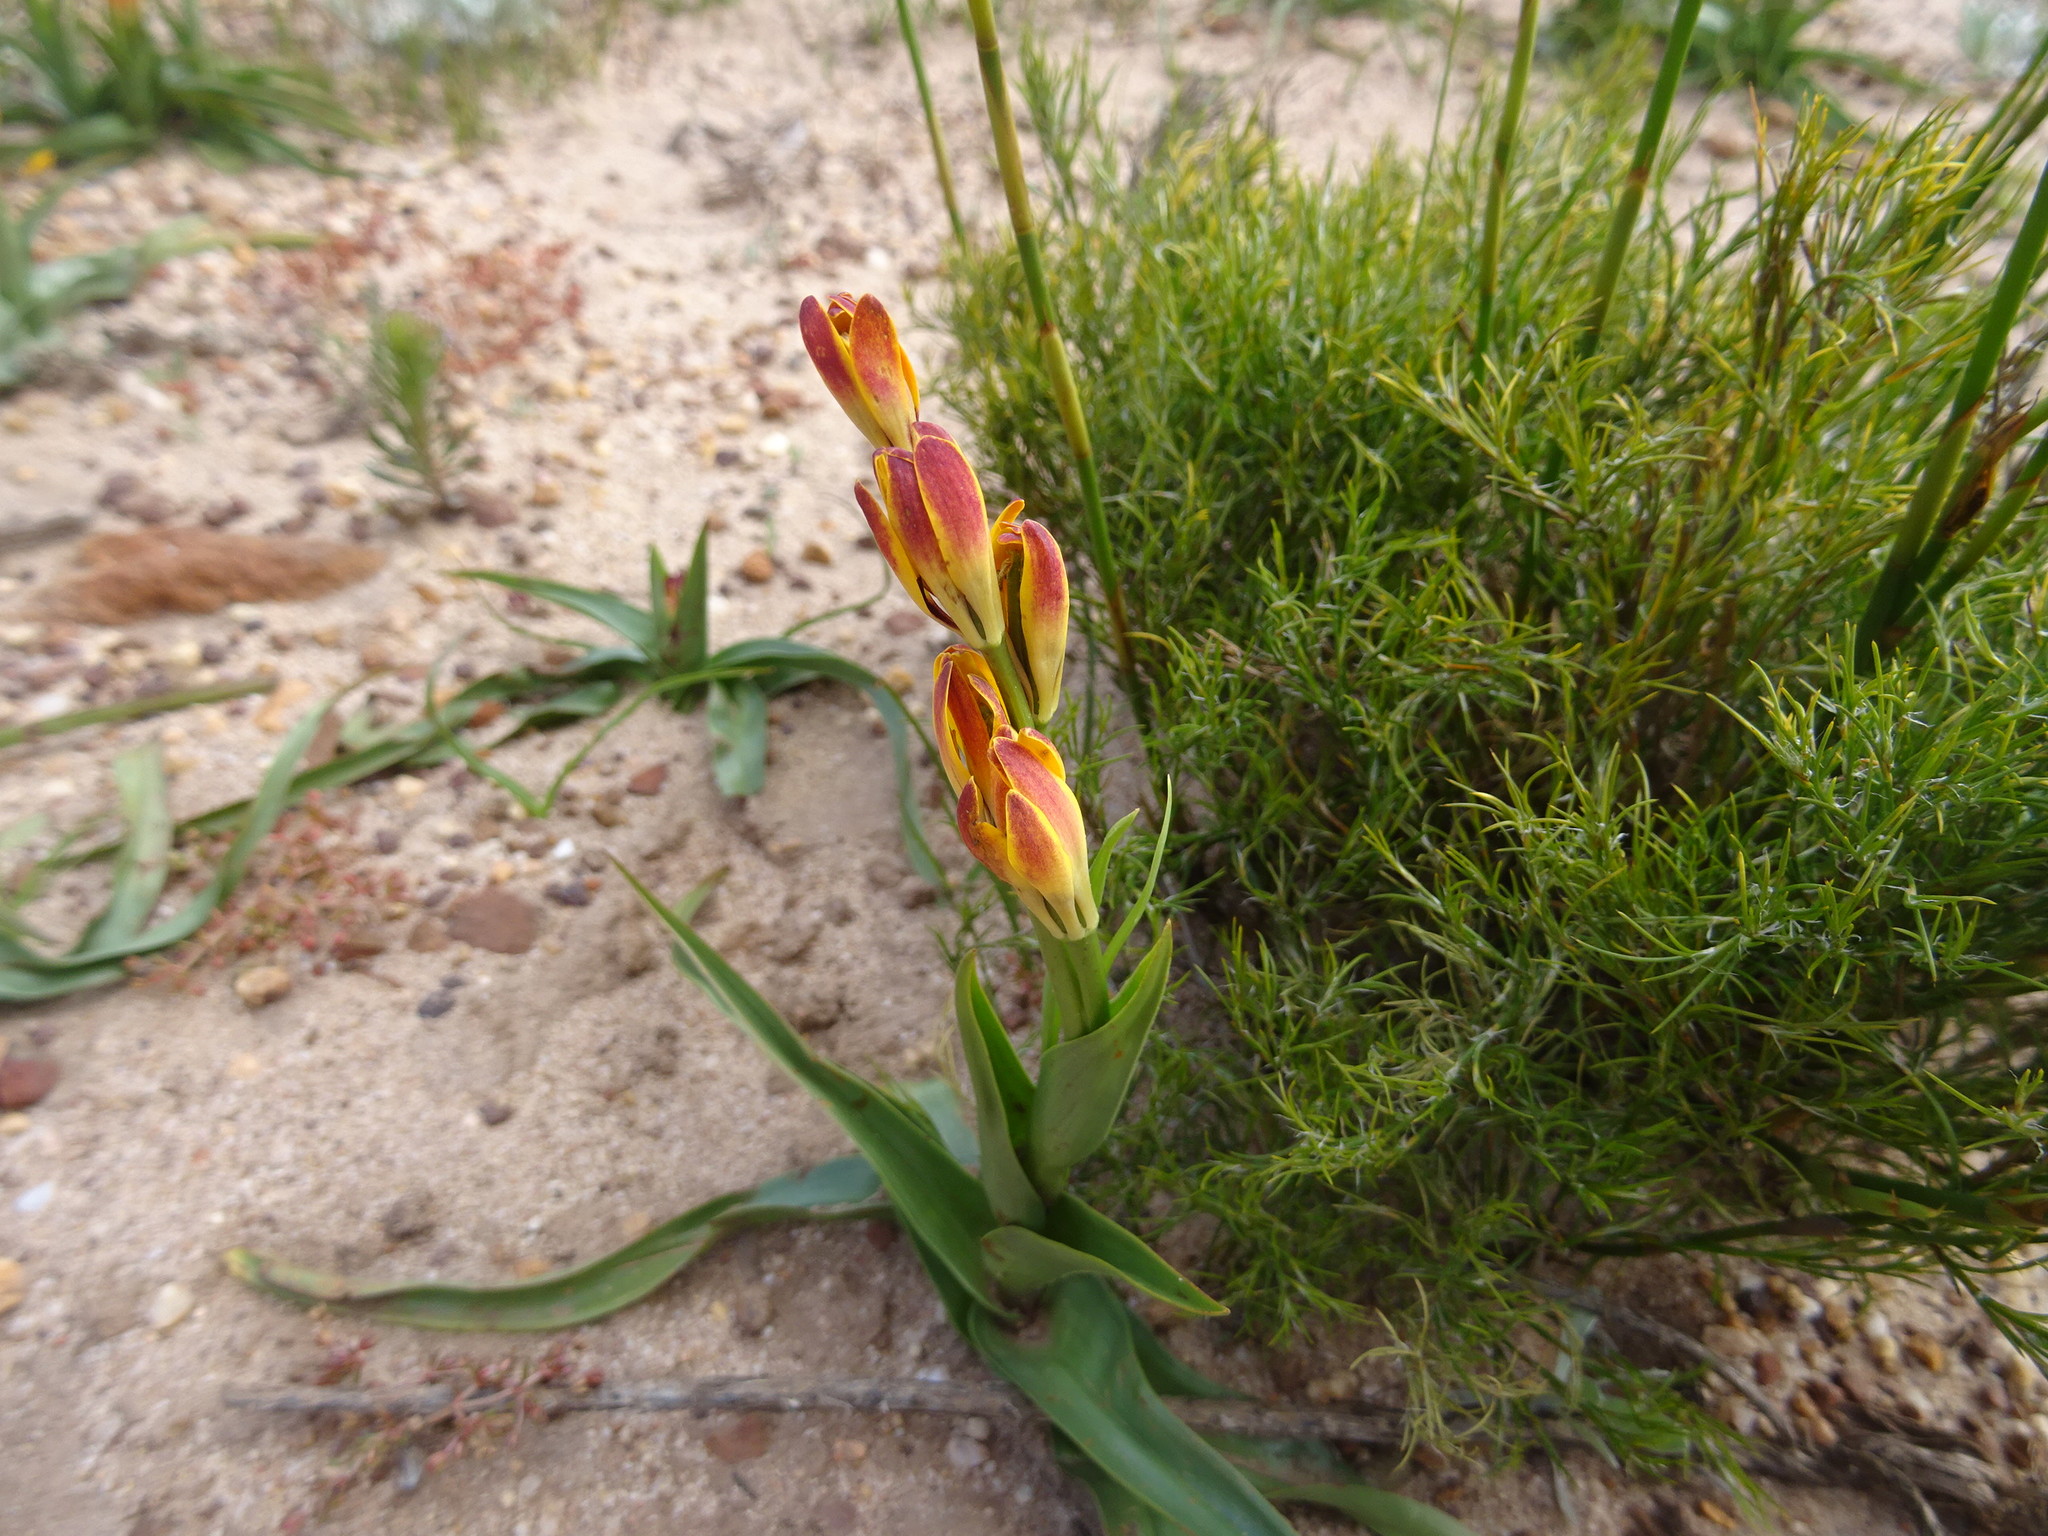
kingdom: Plantae
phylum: Tracheophyta
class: Liliopsida
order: Liliales
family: Colchicaceae
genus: Baeometra
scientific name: Baeometra uniflora
